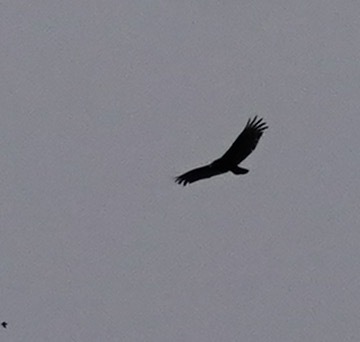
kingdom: Animalia
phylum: Chordata
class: Aves
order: Accipitriformes
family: Cathartidae
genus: Cathartes
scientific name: Cathartes aura
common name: Turkey vulture
